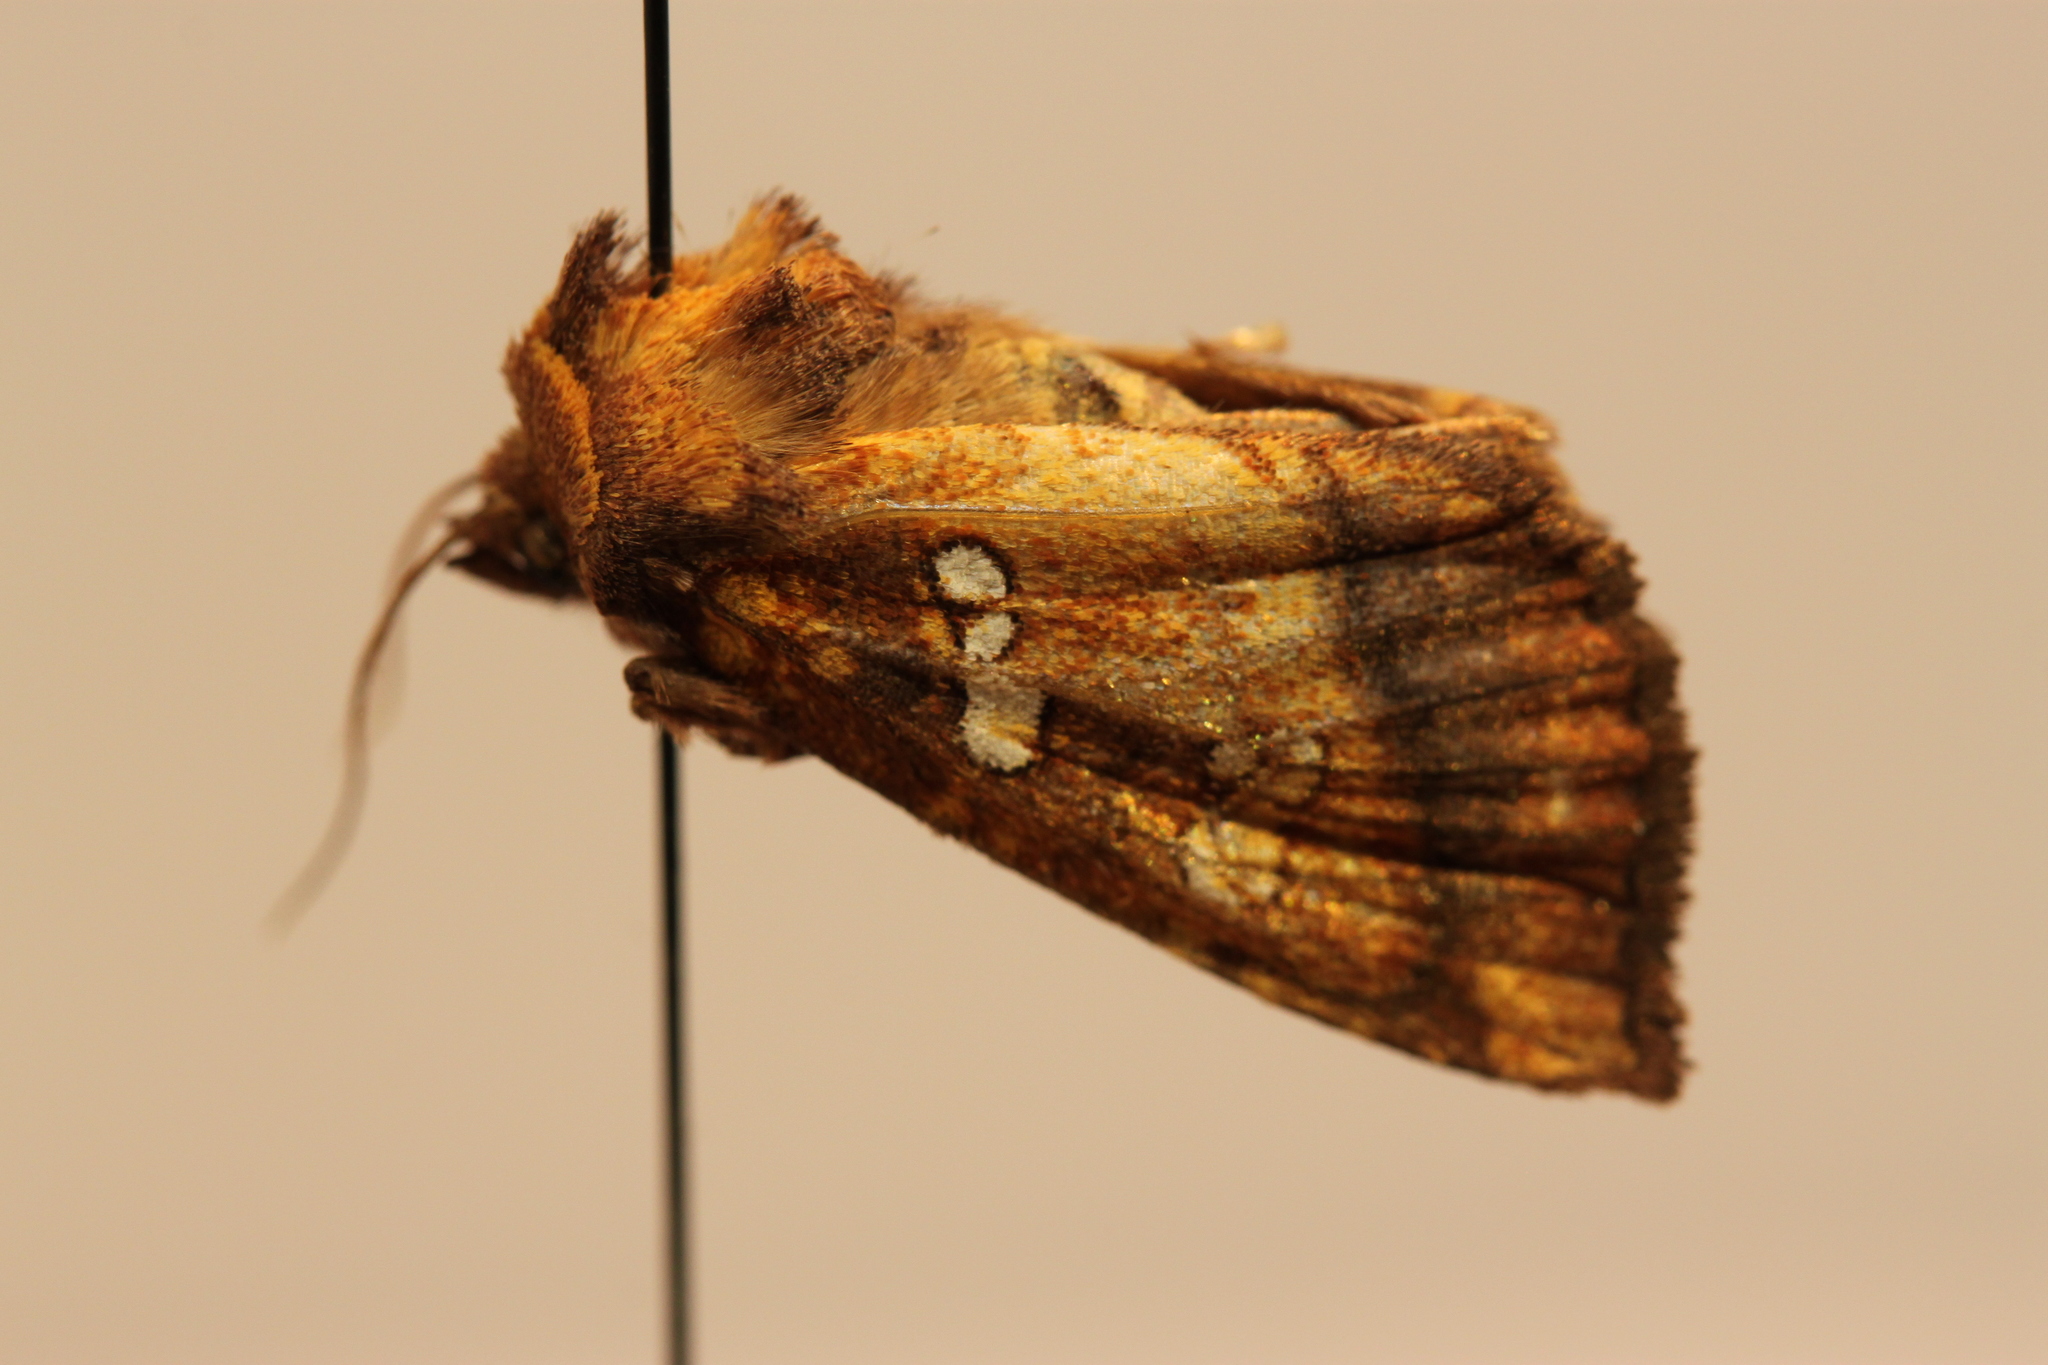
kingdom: Animalia
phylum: Arthropoda
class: Insecta
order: Lepidoptera
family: Noctuidae
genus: Papaipema
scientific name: Papaipema pterisii
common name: Bracken borer moth
